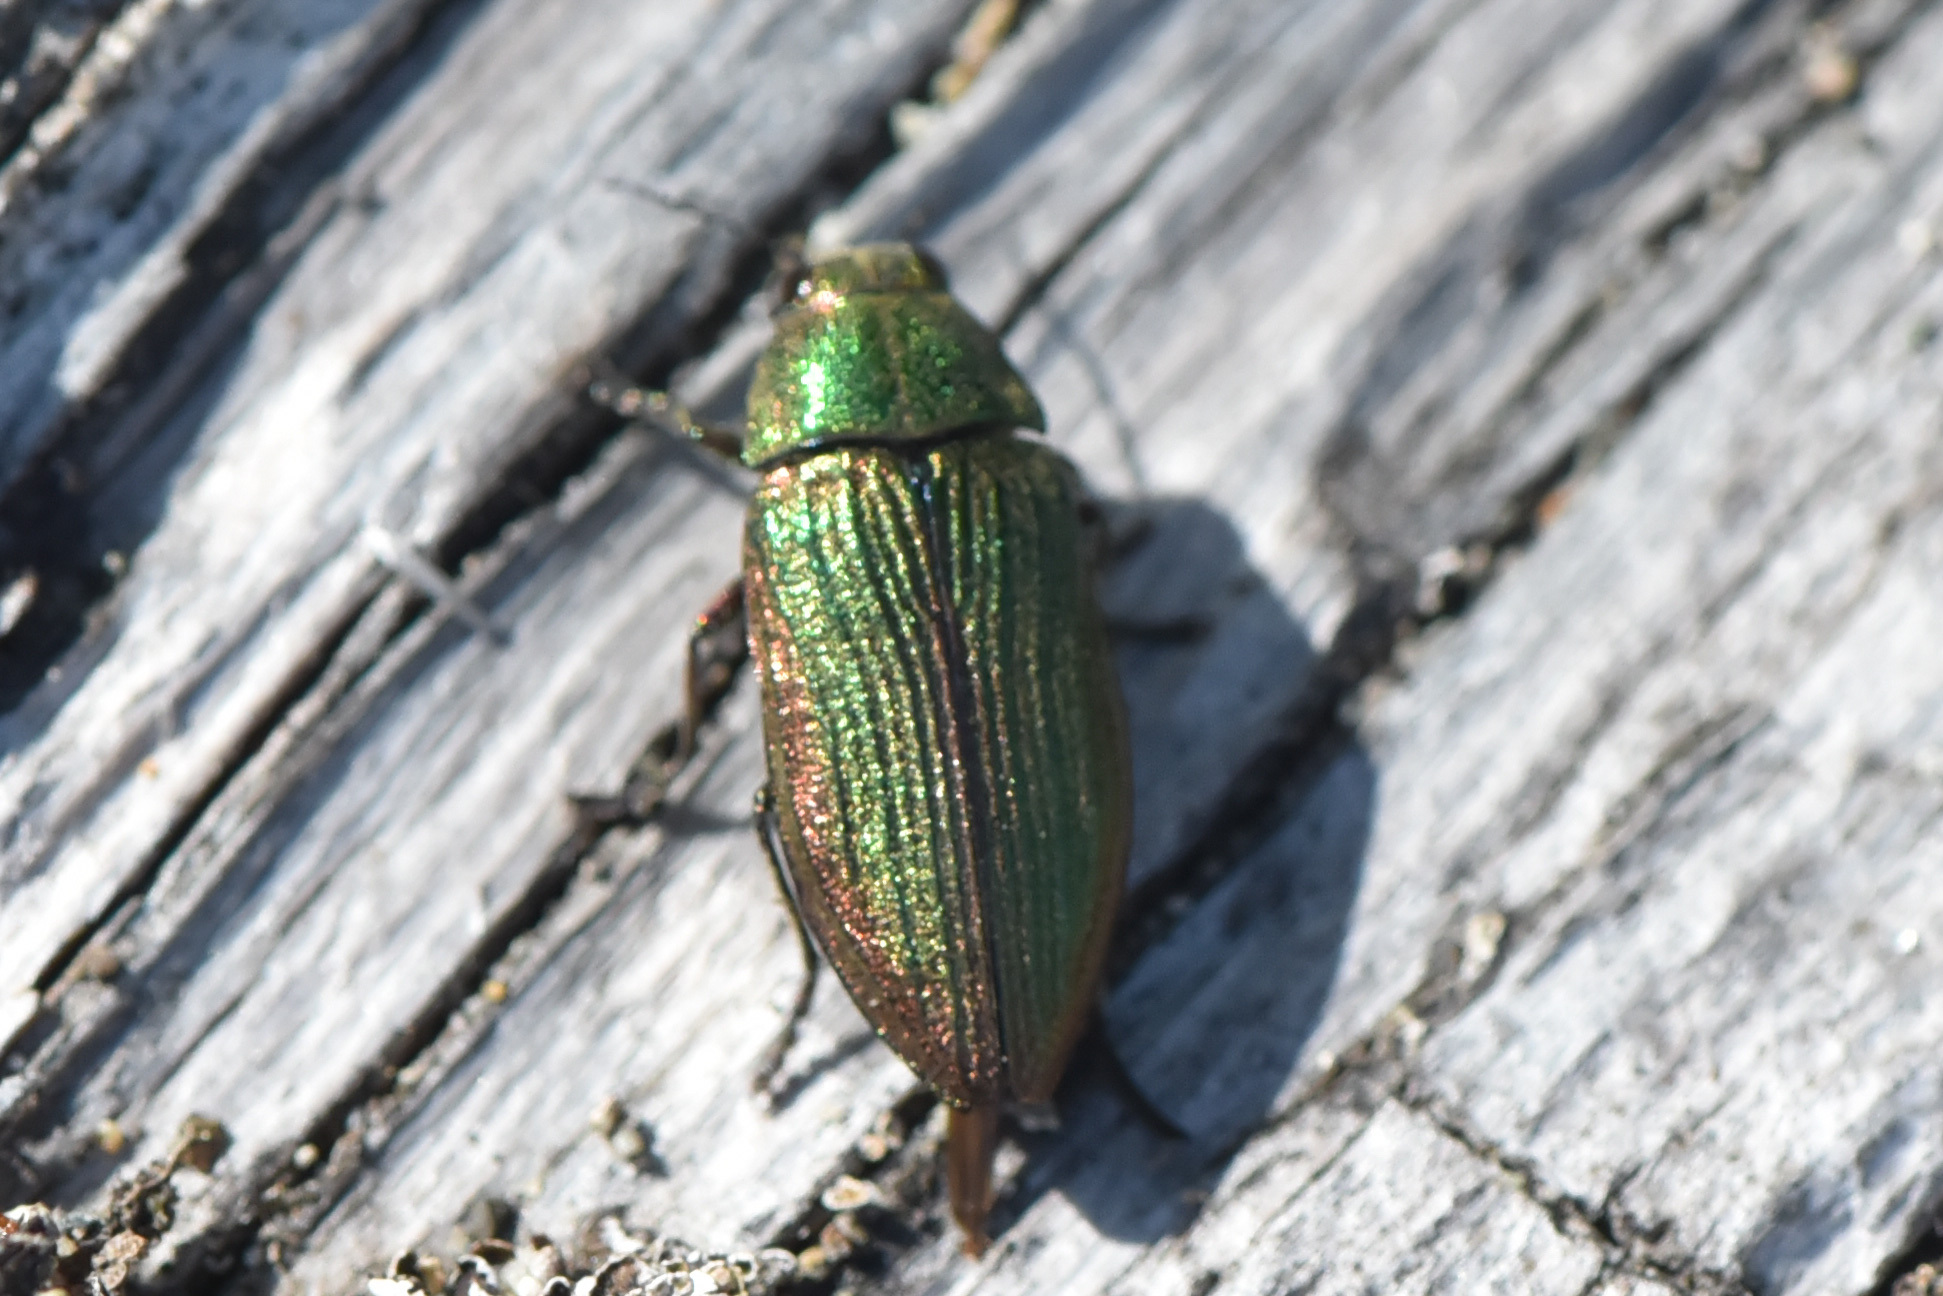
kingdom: Animalia
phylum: Arthropoda
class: Insecta
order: Coleoptera
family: Buprestidae
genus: Buprestis
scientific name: Buprestis adjecta
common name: Buprestid beetle
